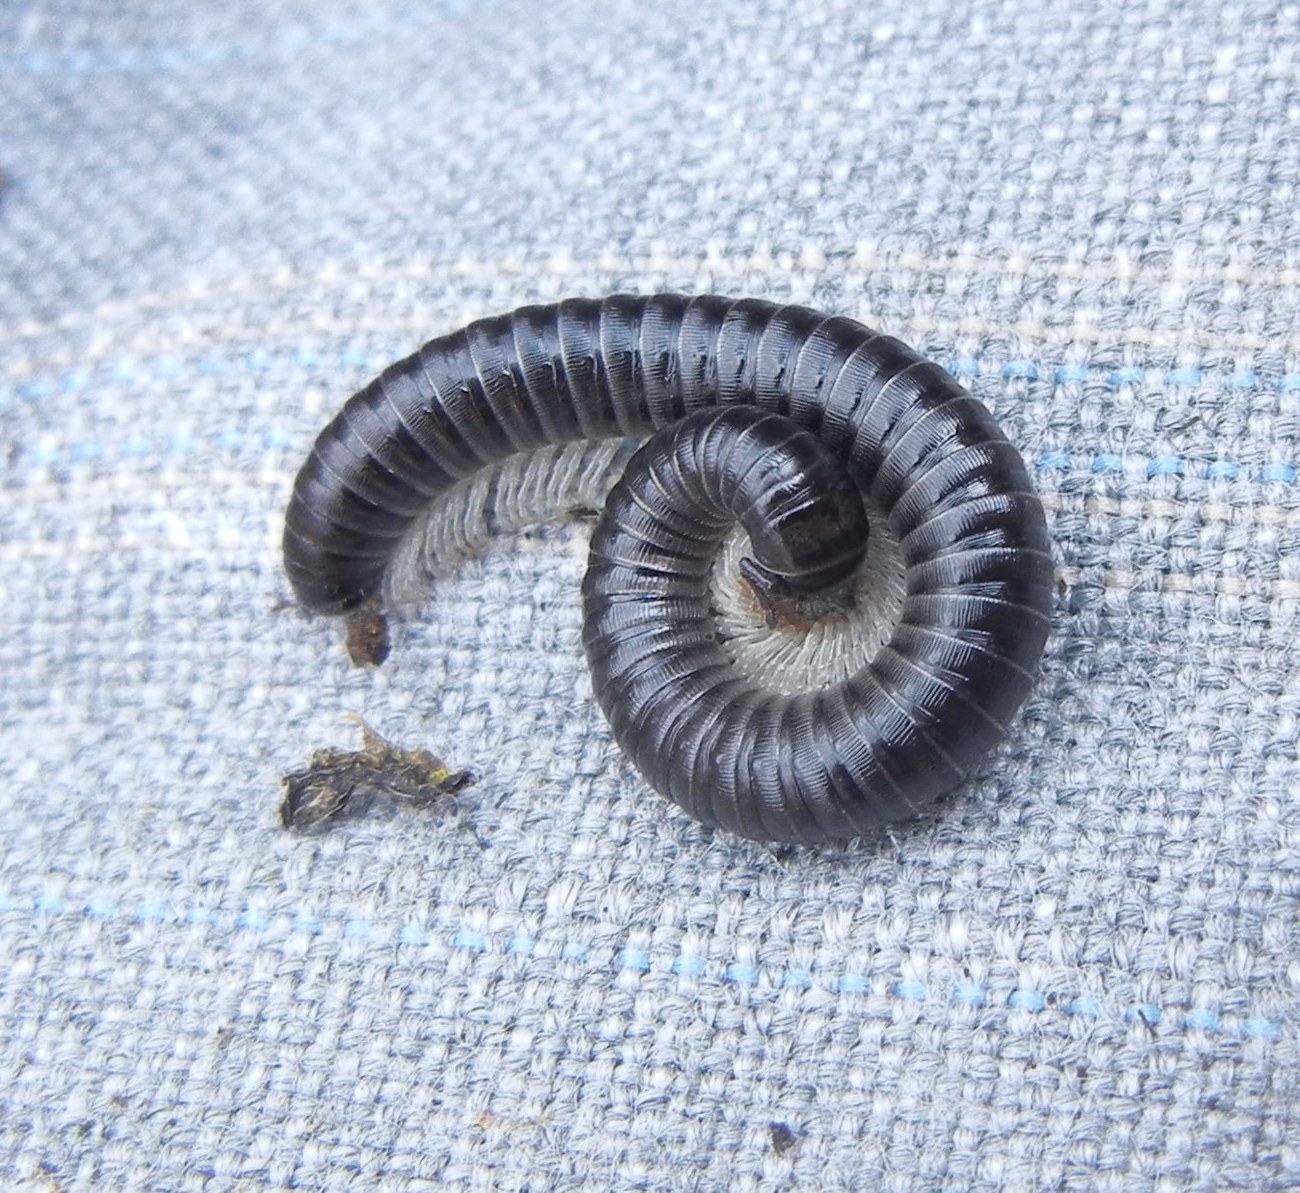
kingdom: Animalia
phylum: Arthropoda
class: Diplopoda
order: Julida
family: Julidae
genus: Tachypodoiulus
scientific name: Tachypodoiulus niger
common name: White-legged snake millipede
